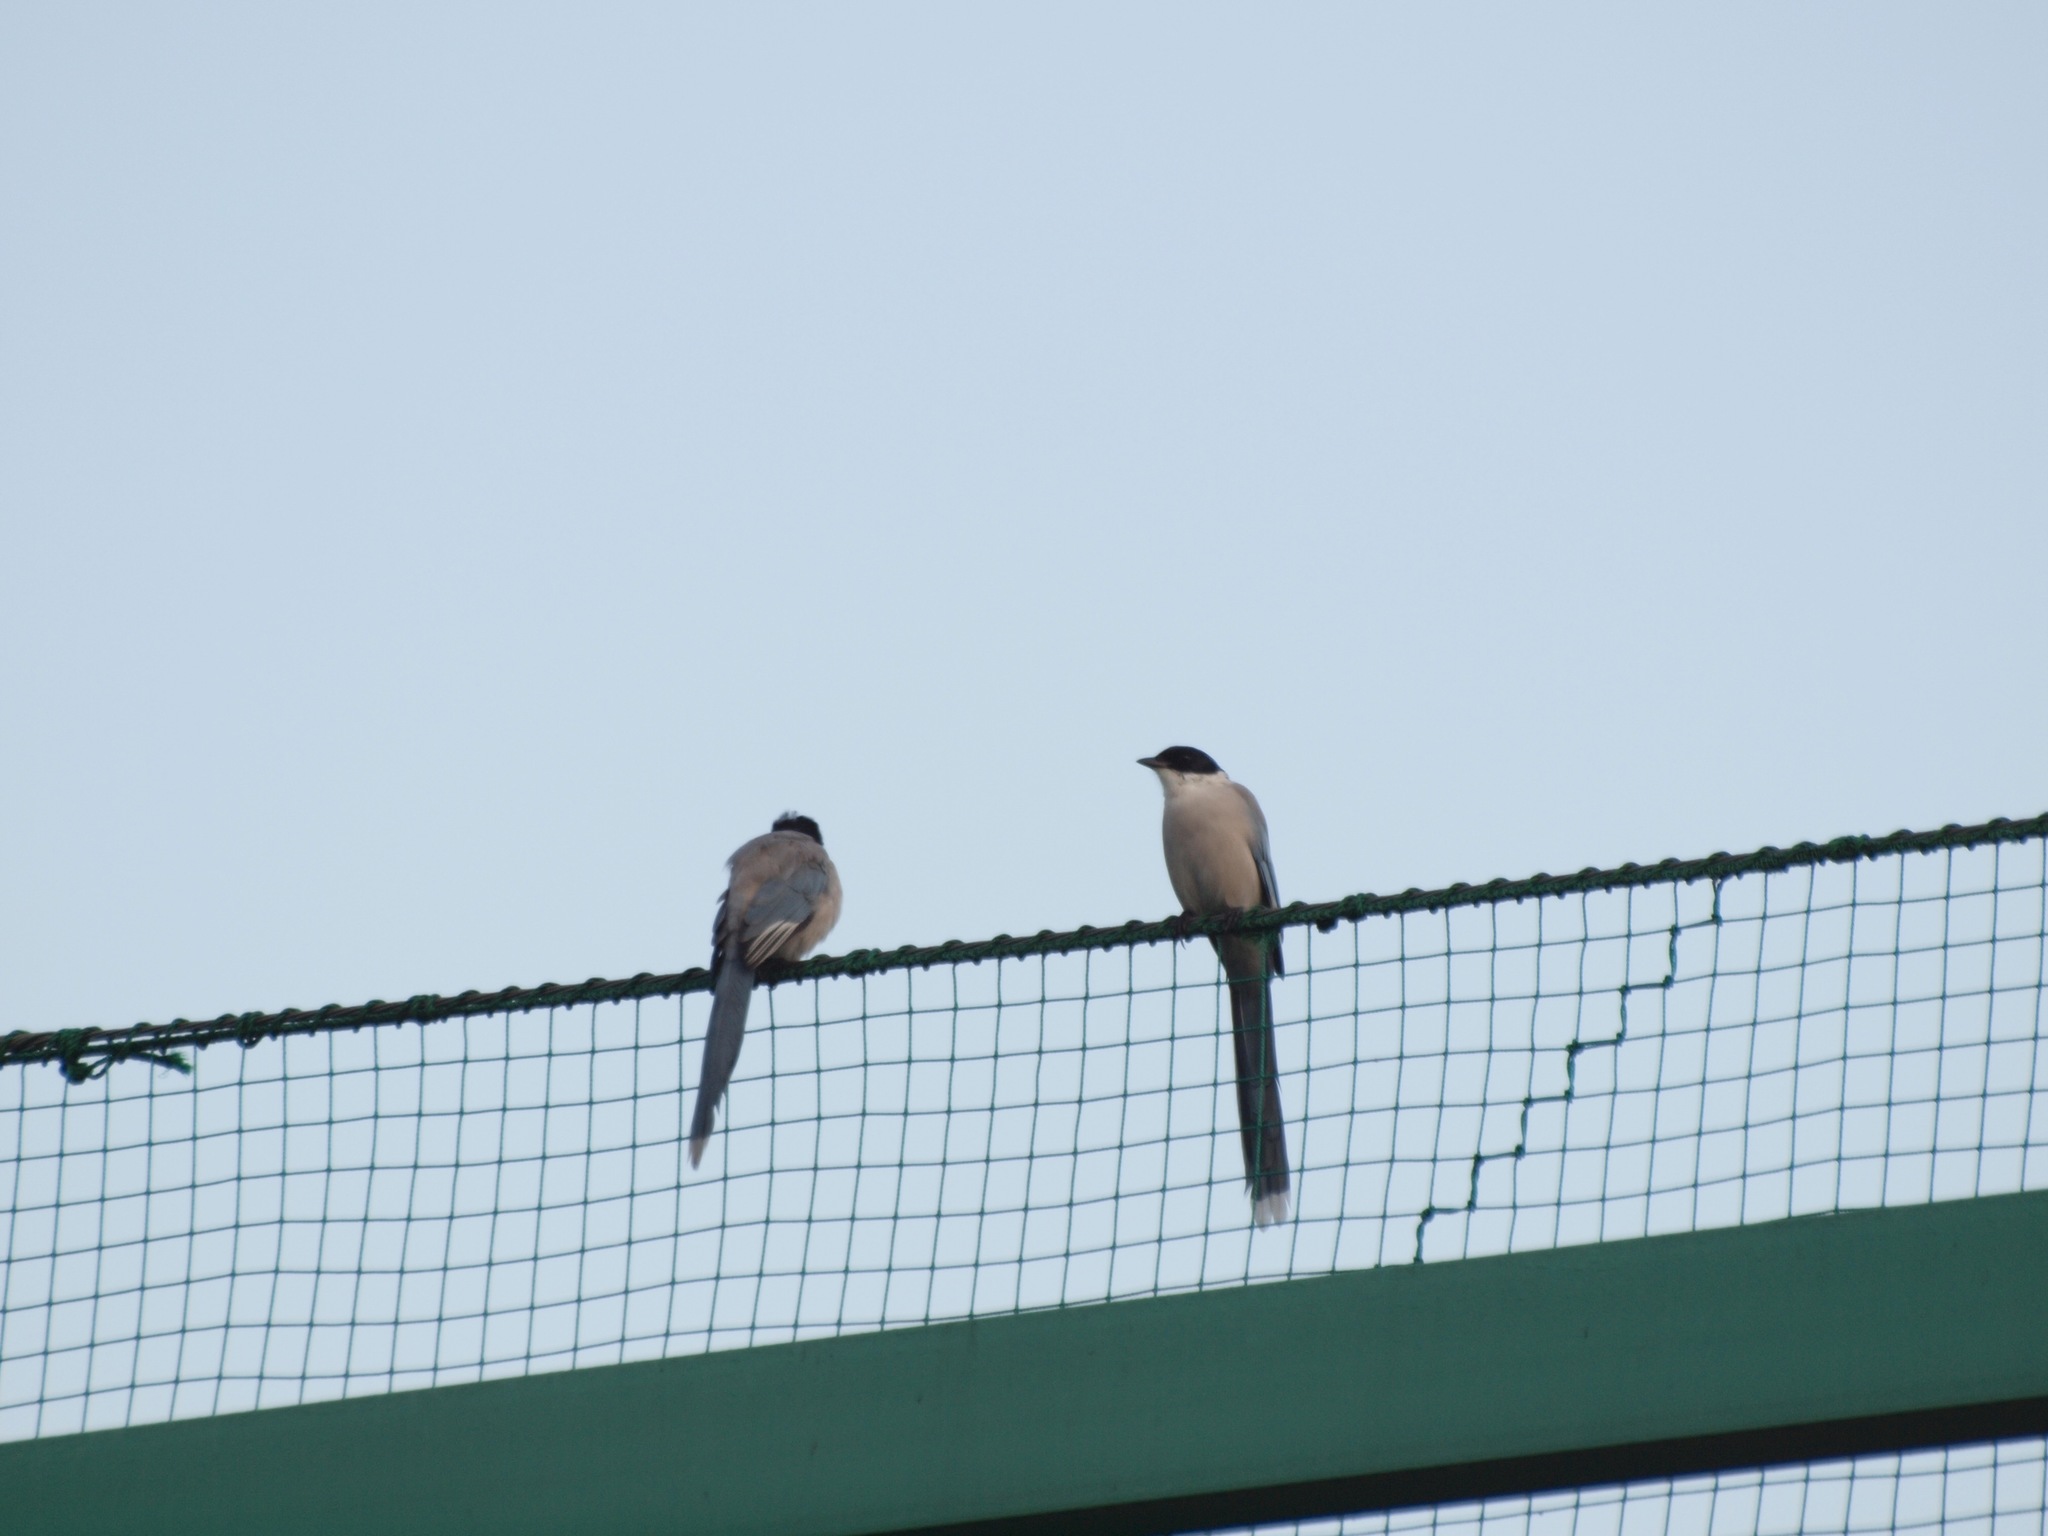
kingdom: Animalia
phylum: Chordata
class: Aves
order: Passeriformes
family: Corvidae
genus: Cyanopica
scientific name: Cyanopica cyanus
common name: Azure-winged magpie
